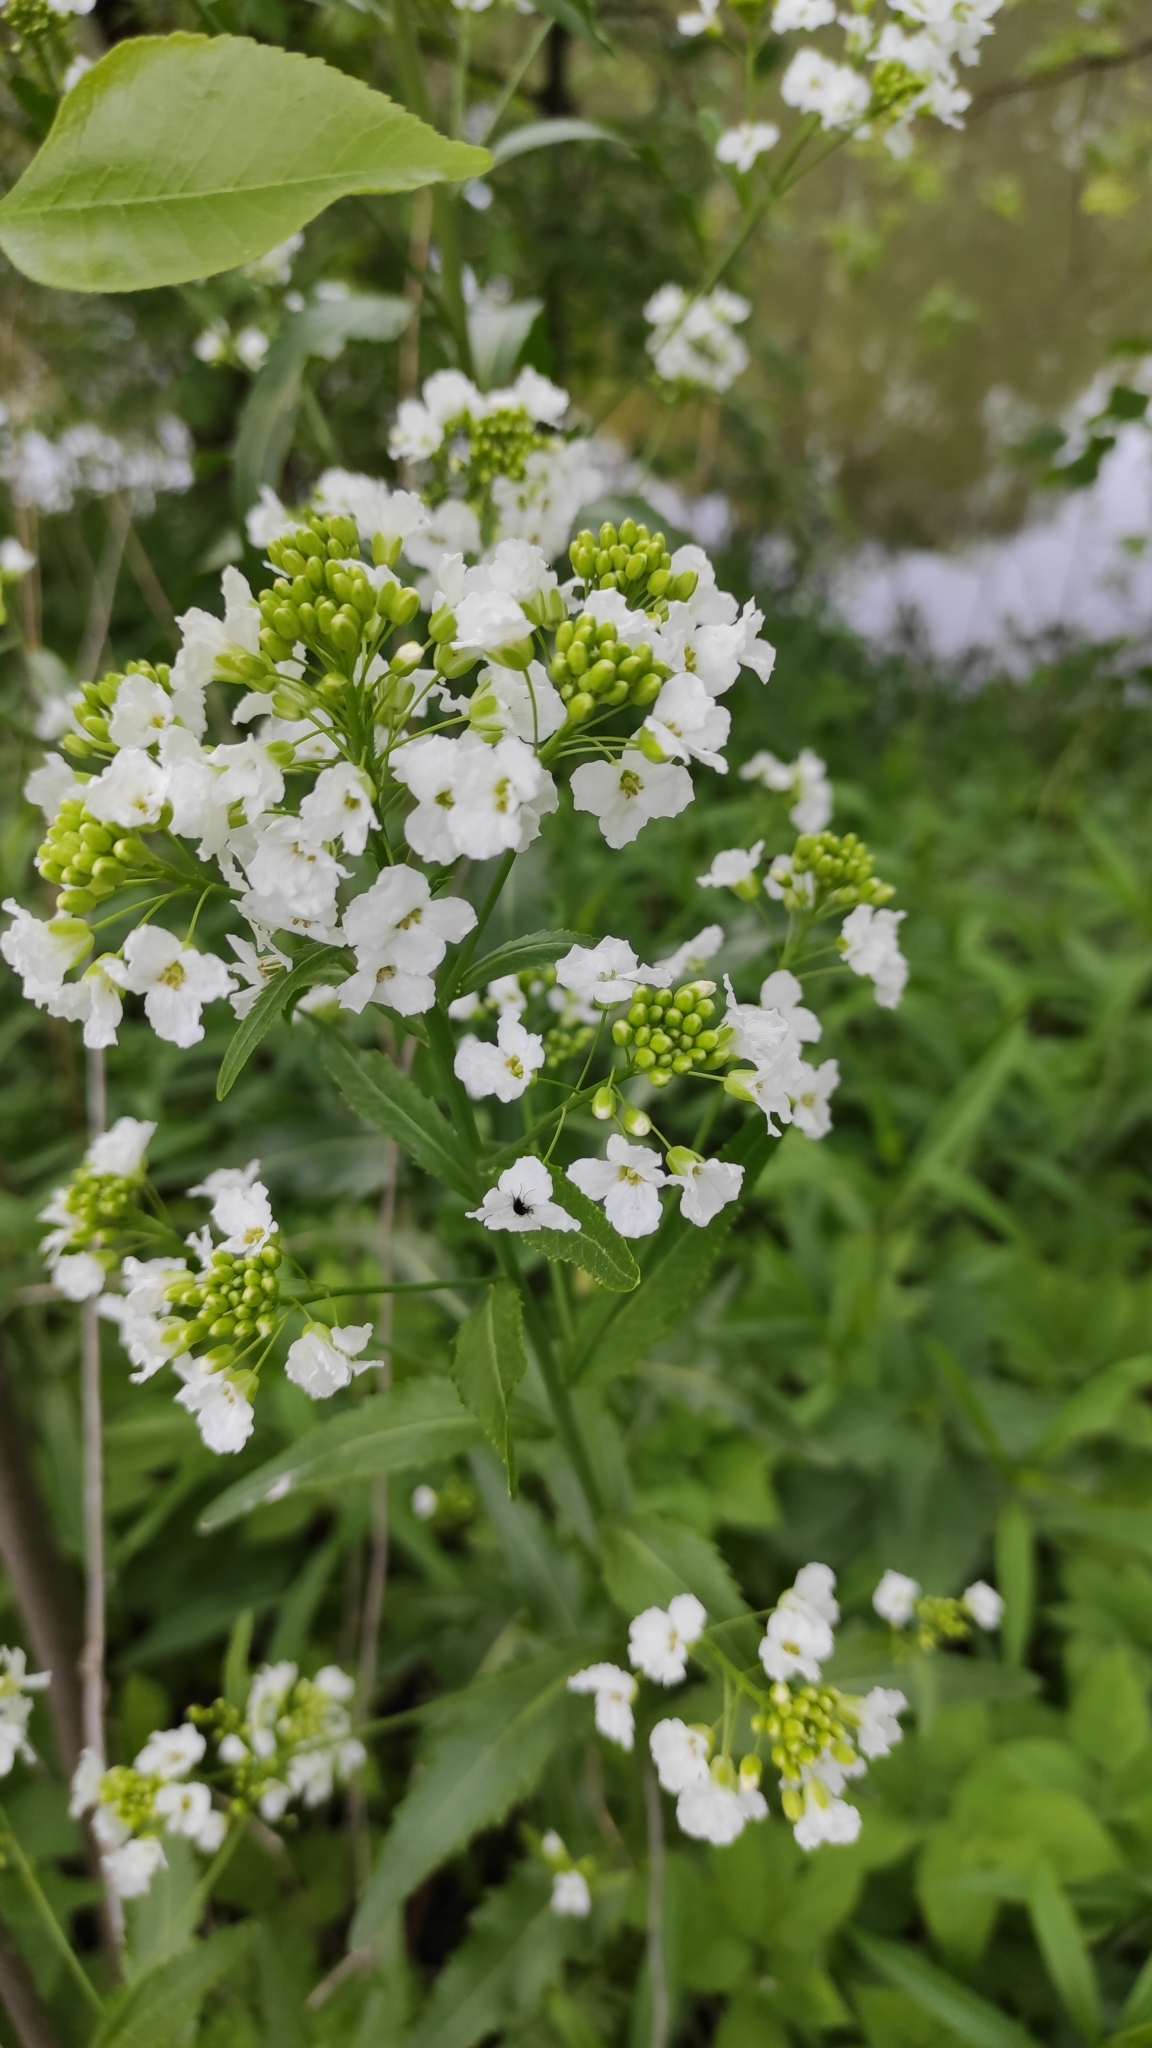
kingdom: Plantae
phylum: Tracheophyta
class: Magnoliopsida
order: Brassicales
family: Brassicaceae
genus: Armoracia
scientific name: Armoracia rusticana
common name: Horseradish
